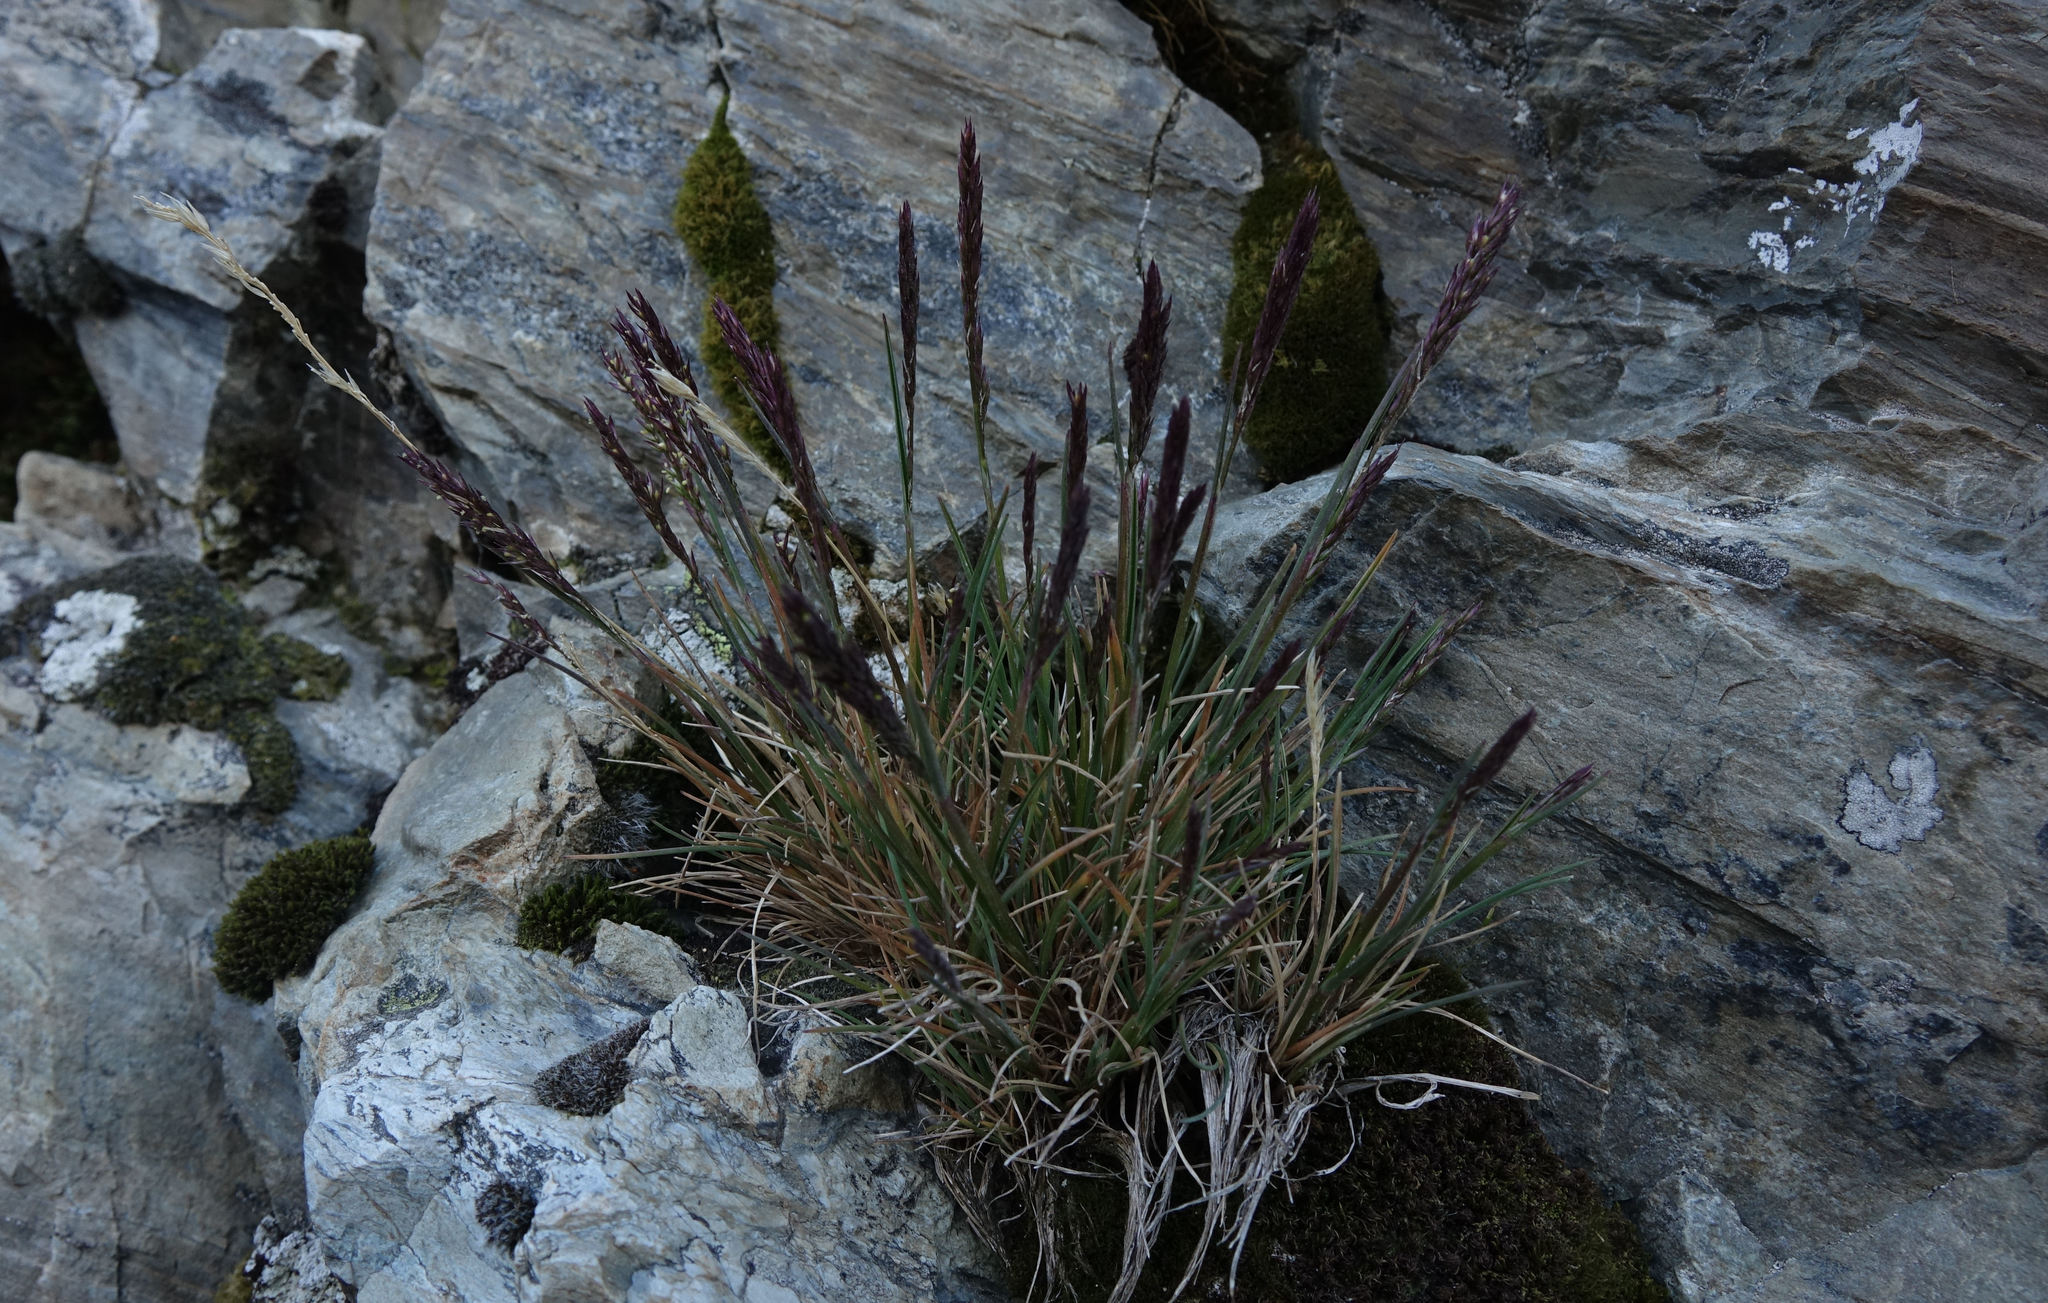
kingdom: Plantae
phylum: Tracheophyta
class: Liliopsida
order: Poales
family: Poaceae
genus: Agrostis
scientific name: Agrostis muelleriana
